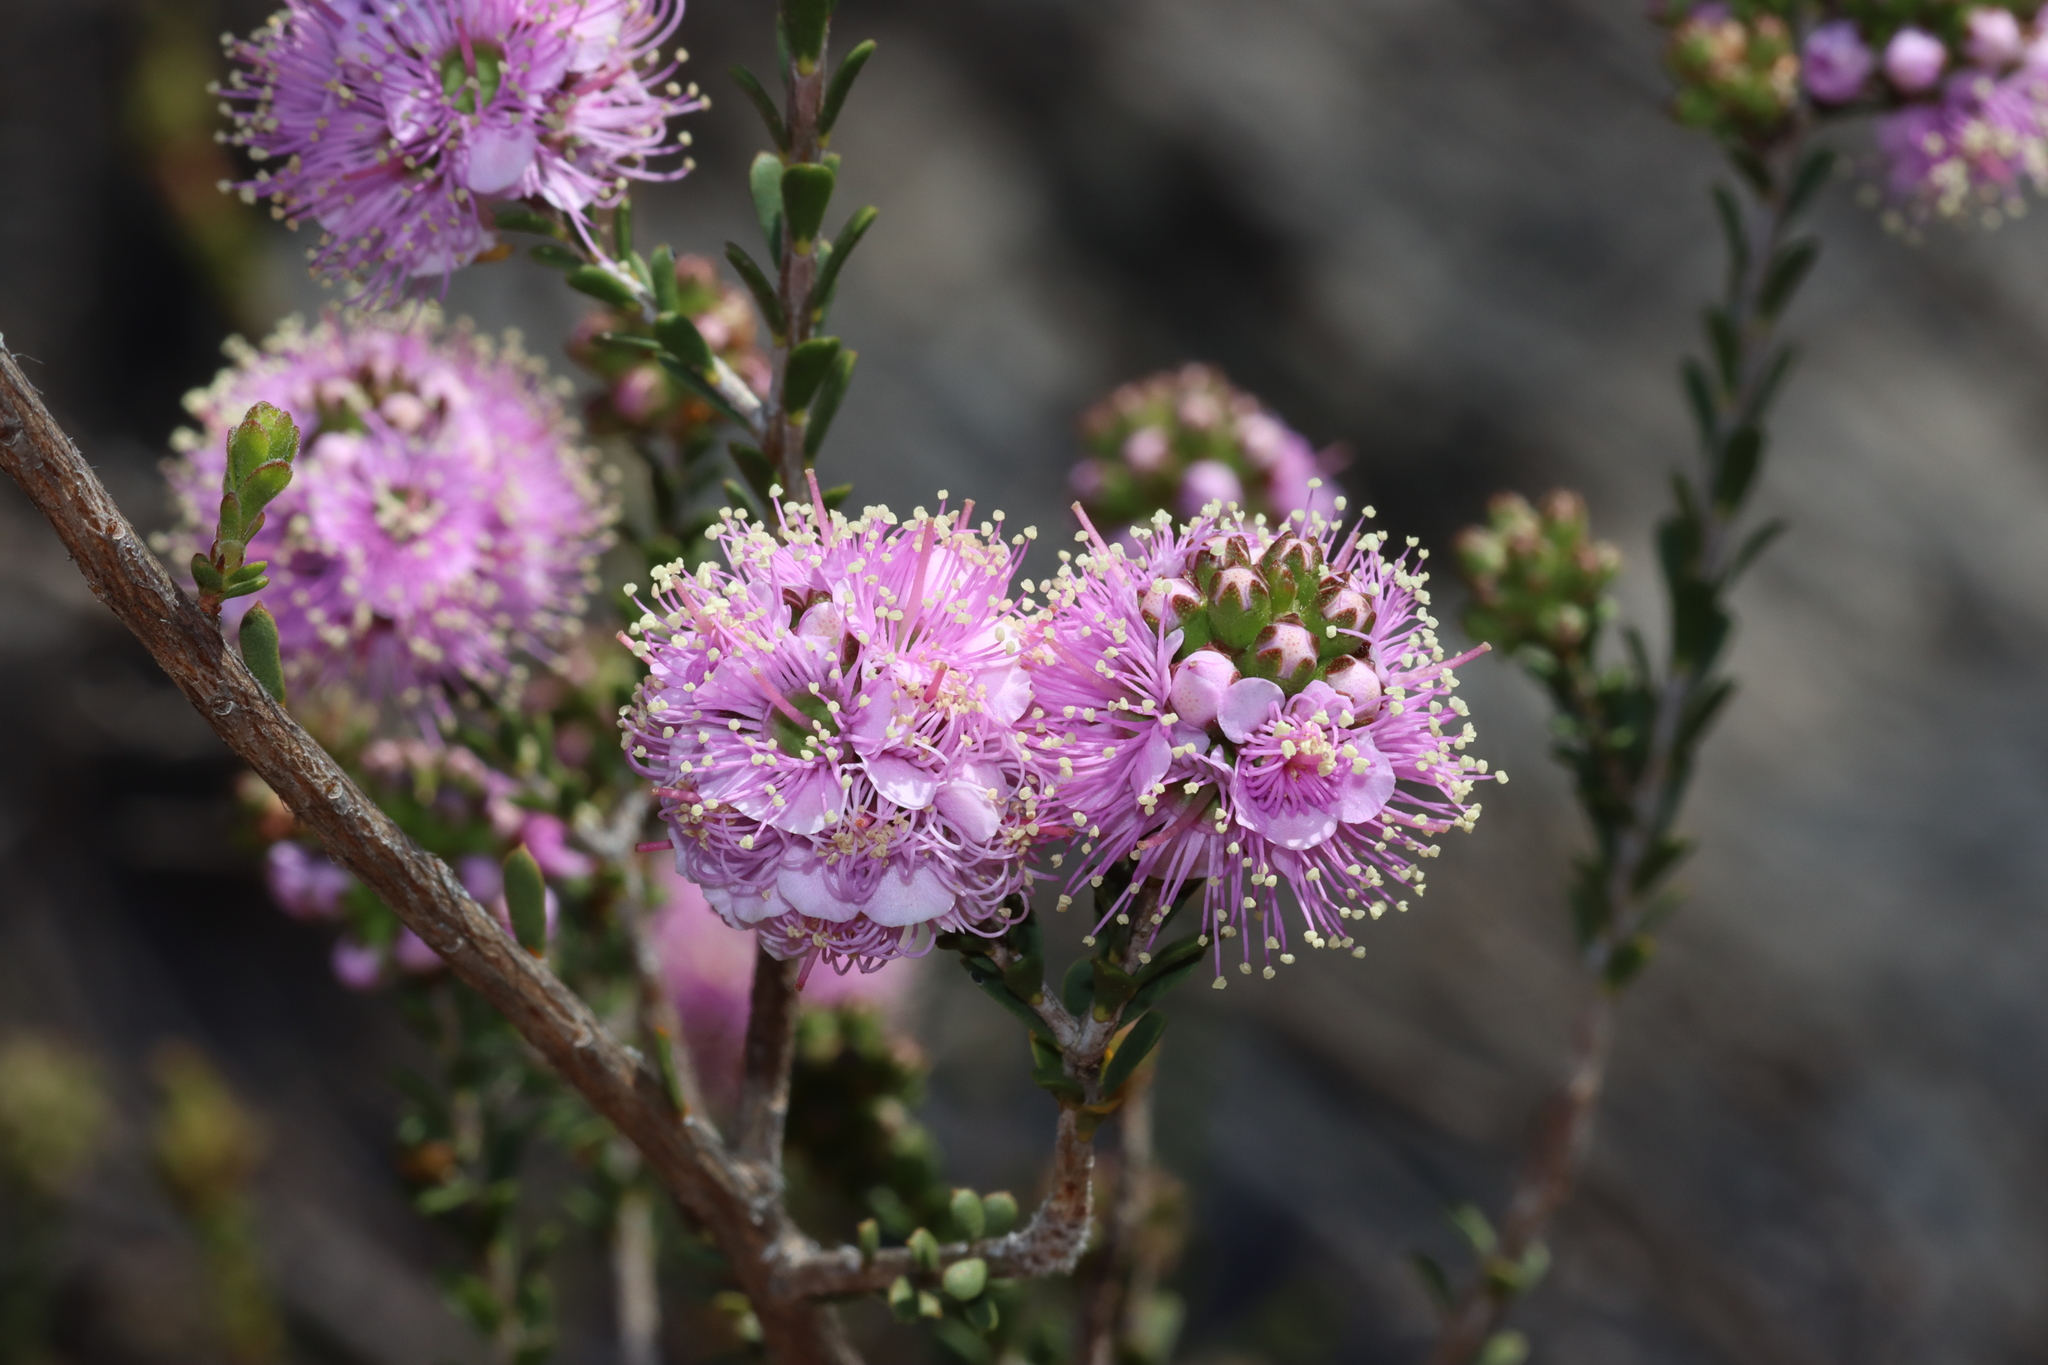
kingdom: Plantae
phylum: Tracheophyta
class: Magnoliopsida
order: Myrtales
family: Myrtaceae
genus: Kunzea
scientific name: Kunzea micrantha
